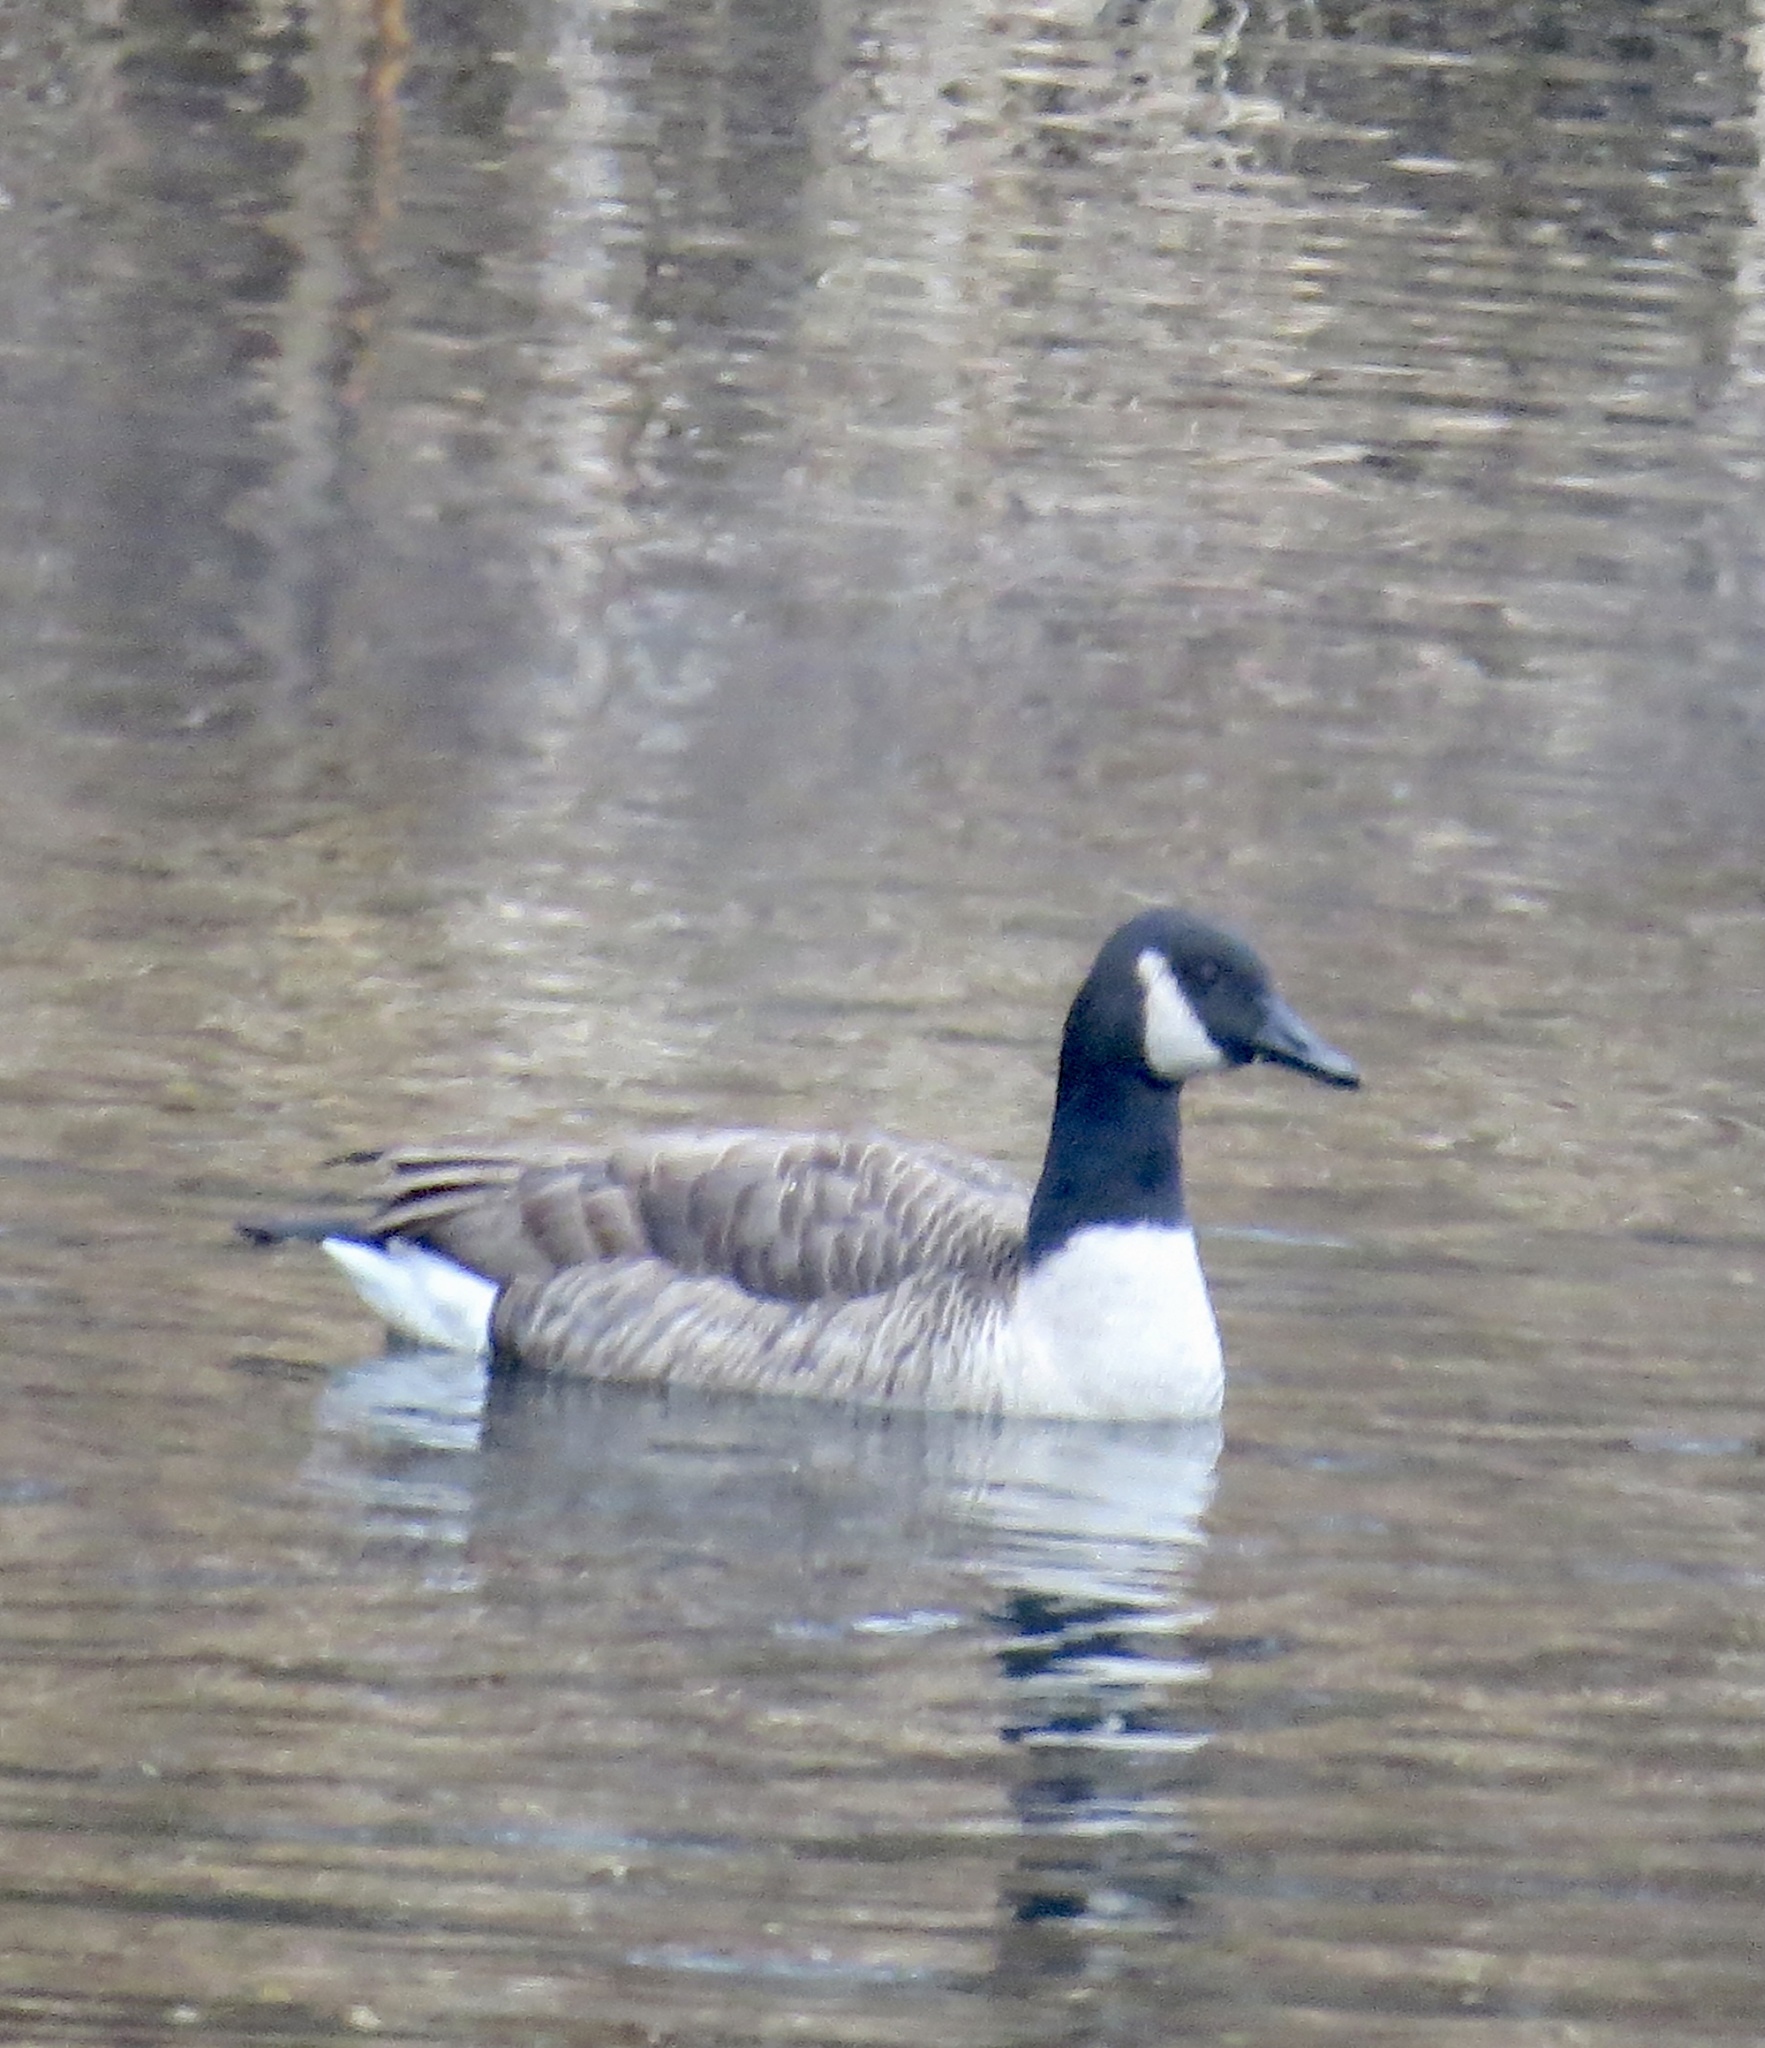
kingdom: Animalia
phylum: Chordata
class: Aves
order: Anseriformes
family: Anatidae
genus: Branta
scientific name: Branta canadensis
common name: Canada goose
